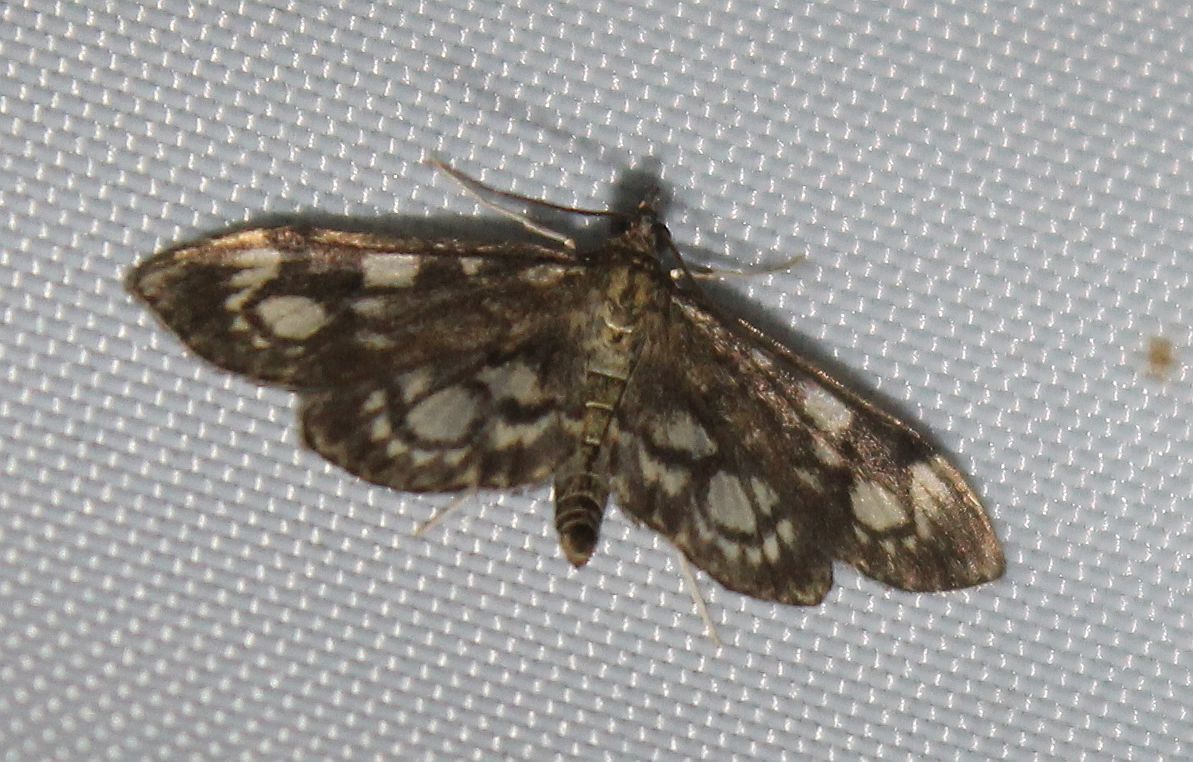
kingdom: Animalia
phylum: Arthropoda
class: Insecta
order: Lepidoptera
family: Crambidae
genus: Anania
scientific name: Anania coronata
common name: Elder pearl
